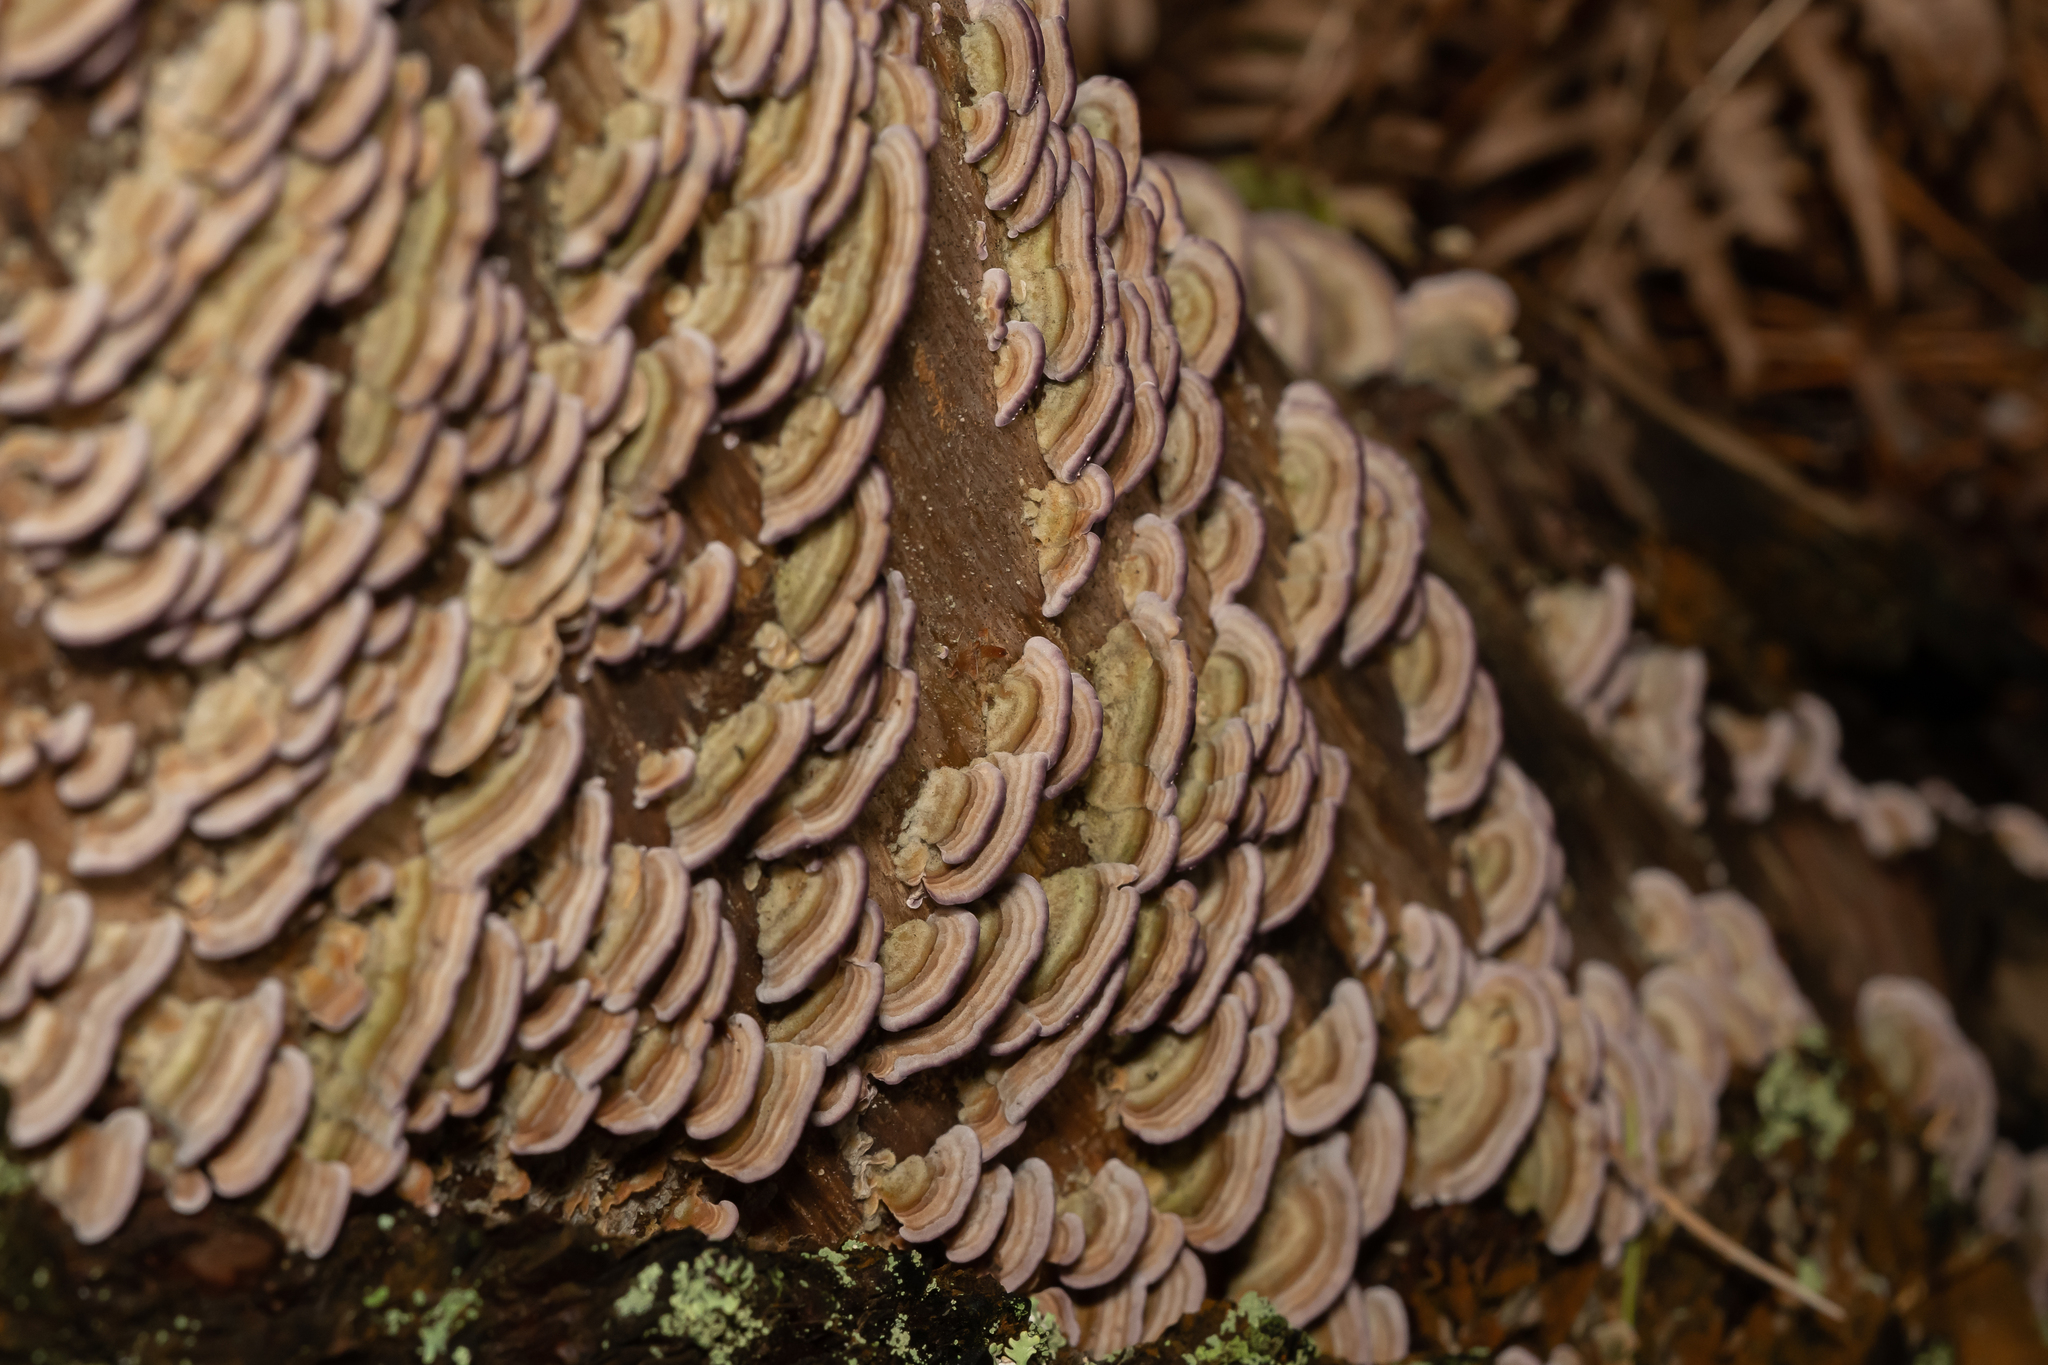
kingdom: Fungi
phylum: Basidiomycota
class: Agaricomycetes
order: Hymenochaetales
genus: Trichaptum
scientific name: Trichaptum abietinum
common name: Purplepore bracket
